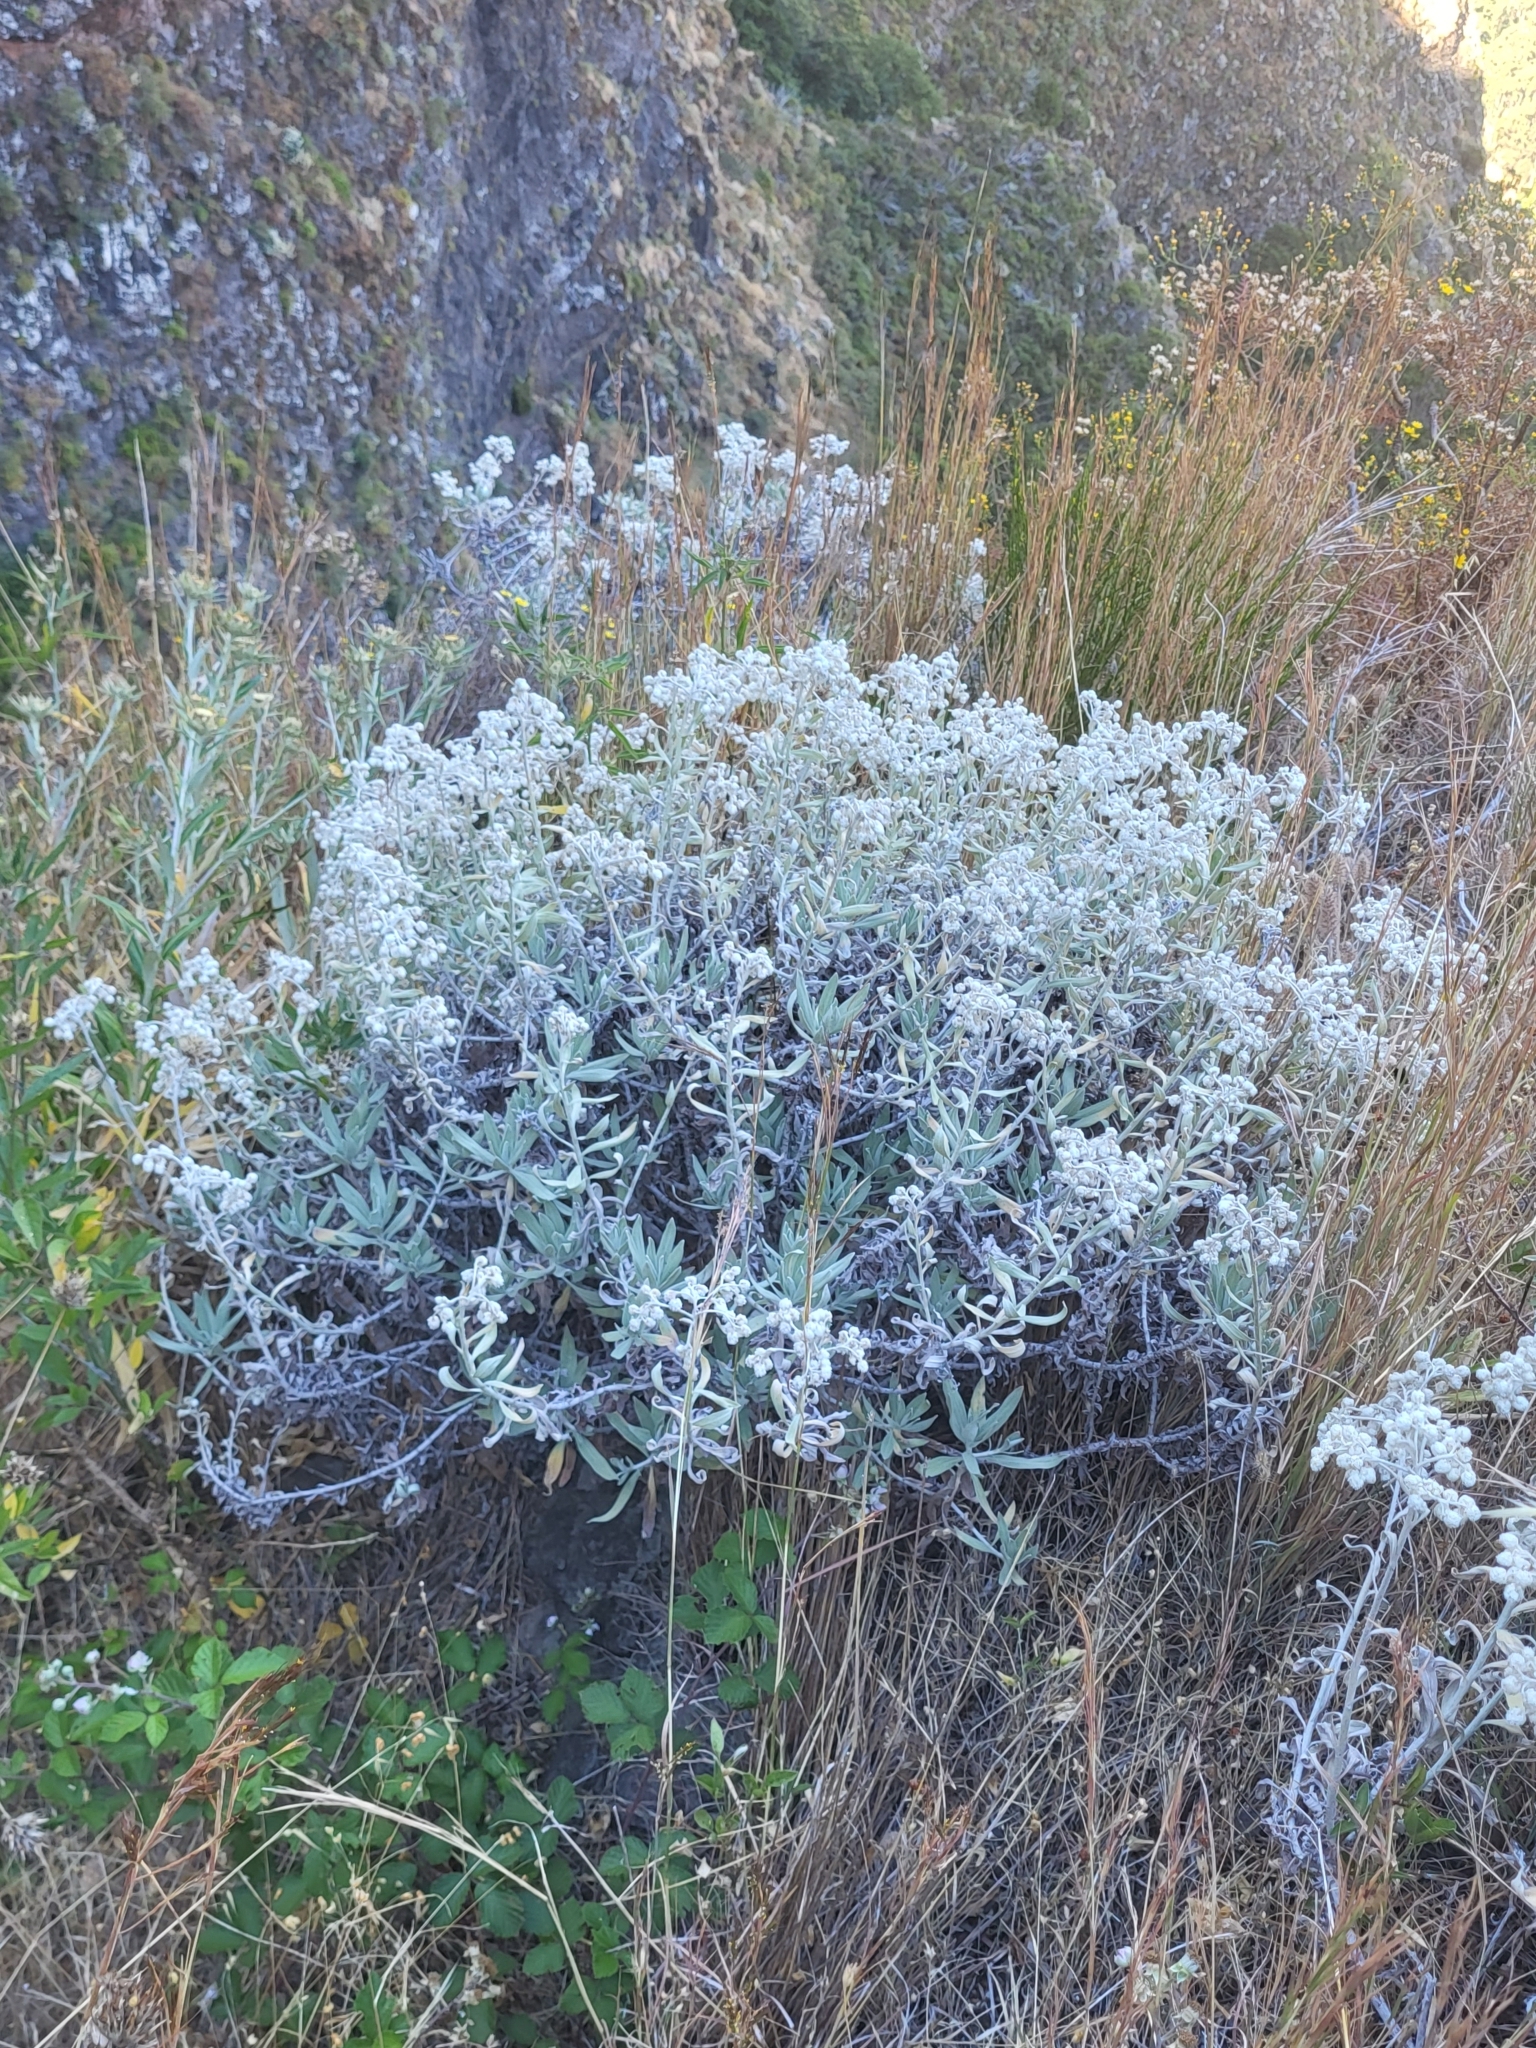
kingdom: Plantae
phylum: Tracheophyta
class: Magnoliopsida
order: Asterales
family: Asteraceae
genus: Helichrysum
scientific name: Helichrysum melaleucum
